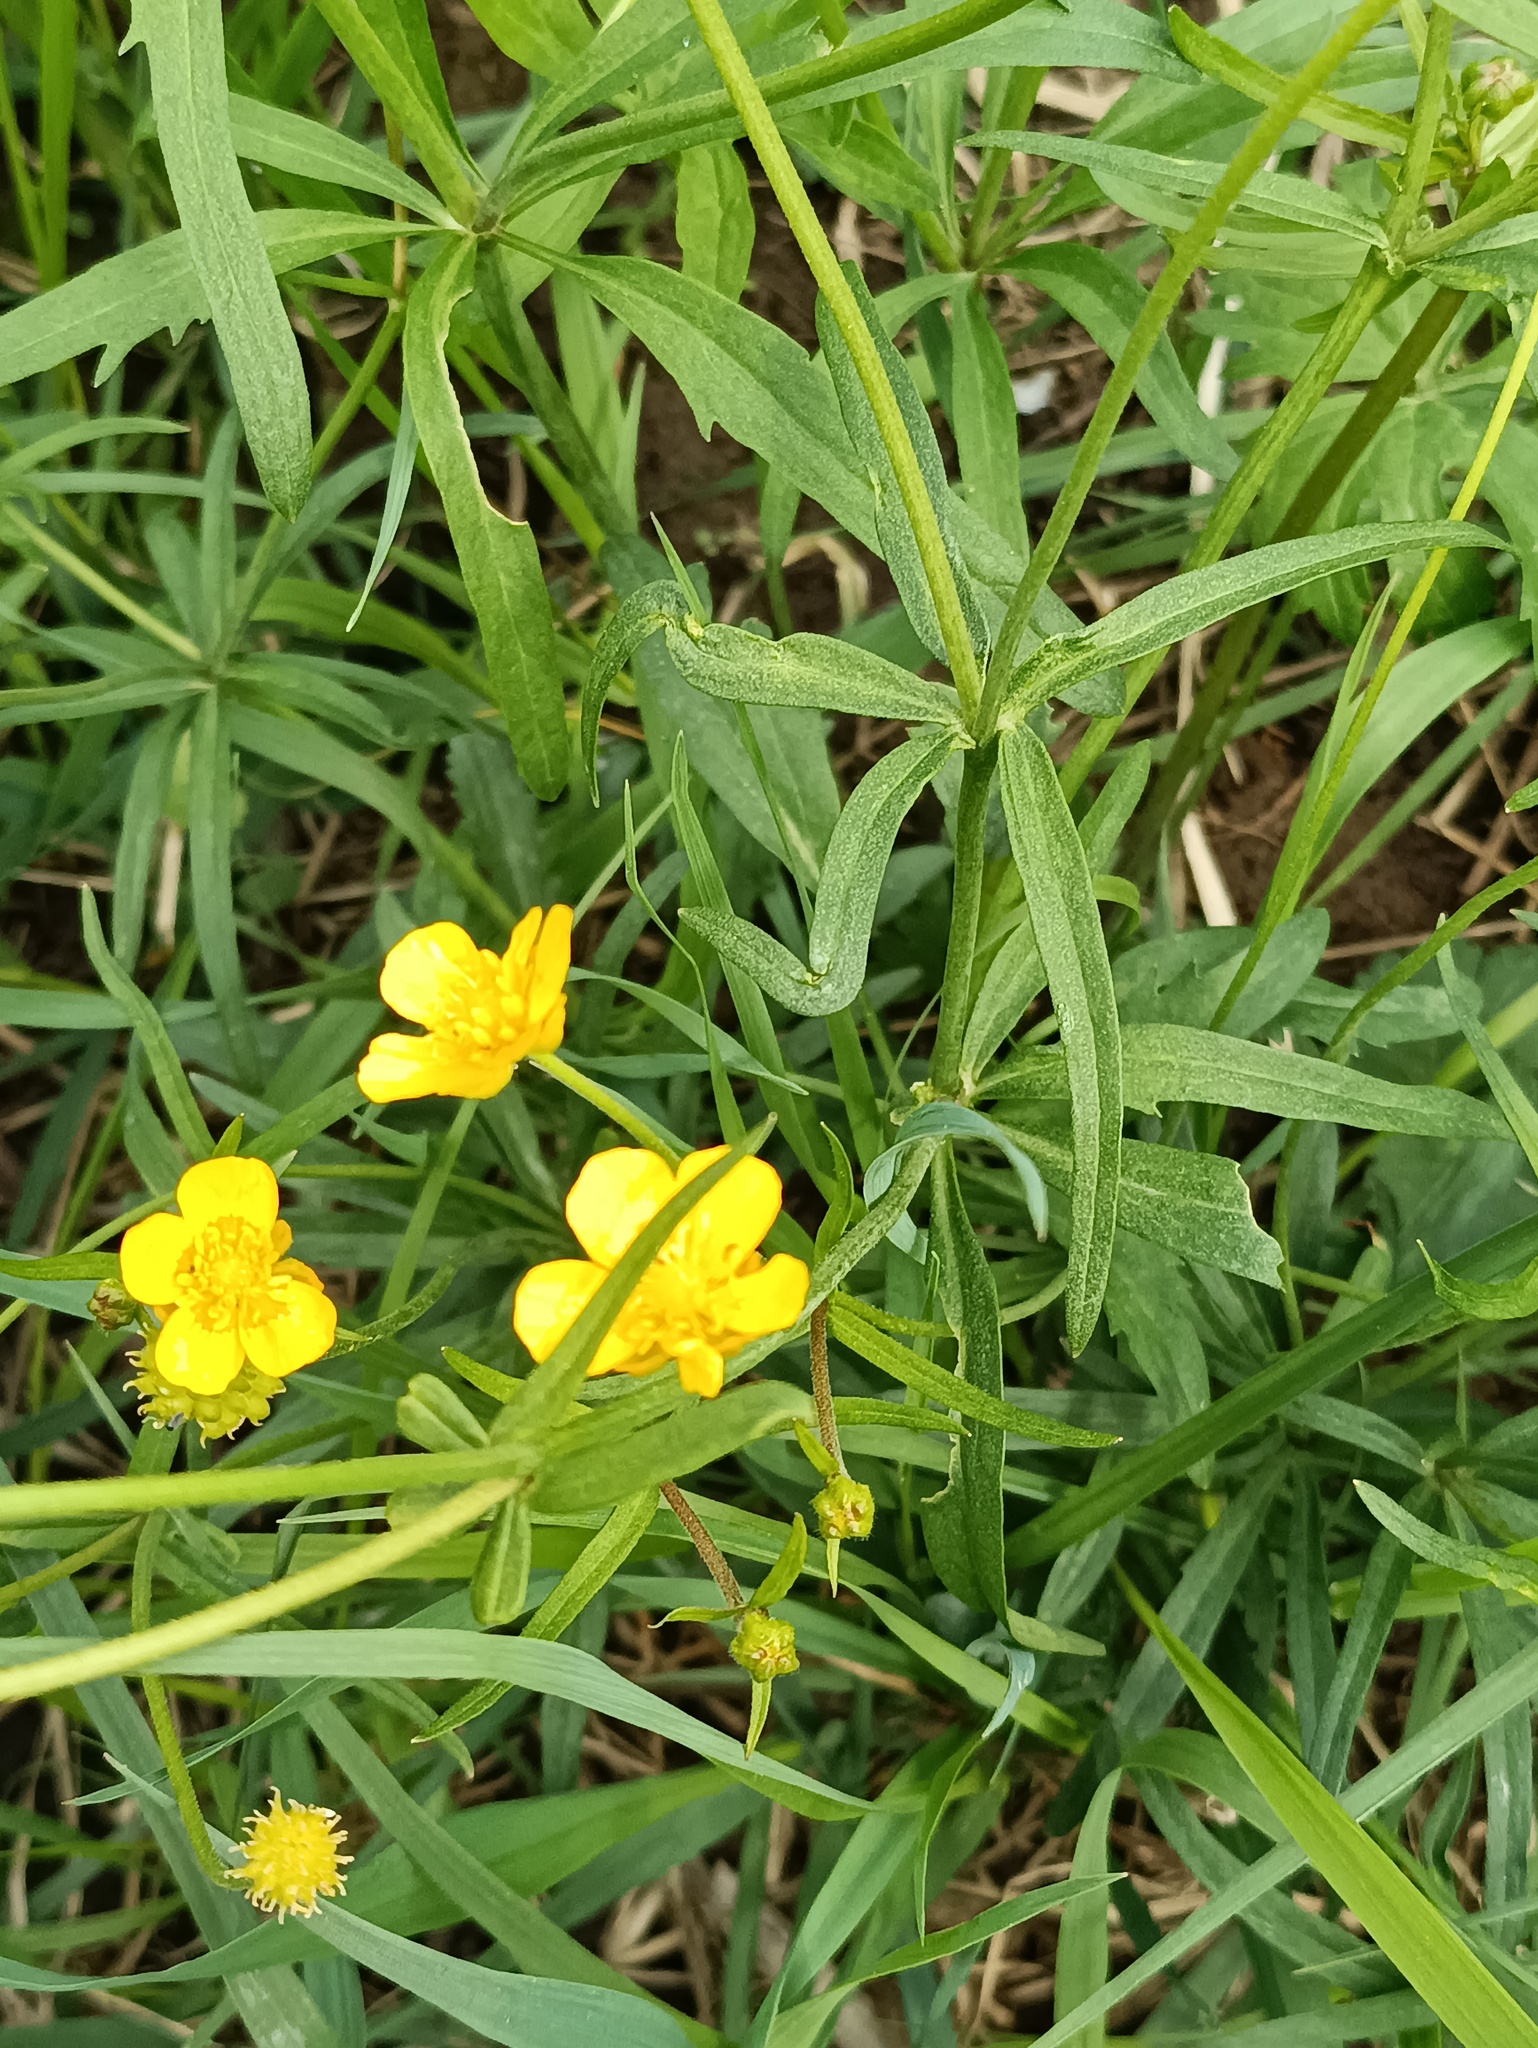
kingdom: Plantae
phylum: Tracheophyta
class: Magnoliopsida
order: Ranunculales
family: Ranunculaceae
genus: Ranunculus
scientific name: Ranunculus auricomus
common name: Goldilocks buttercup
